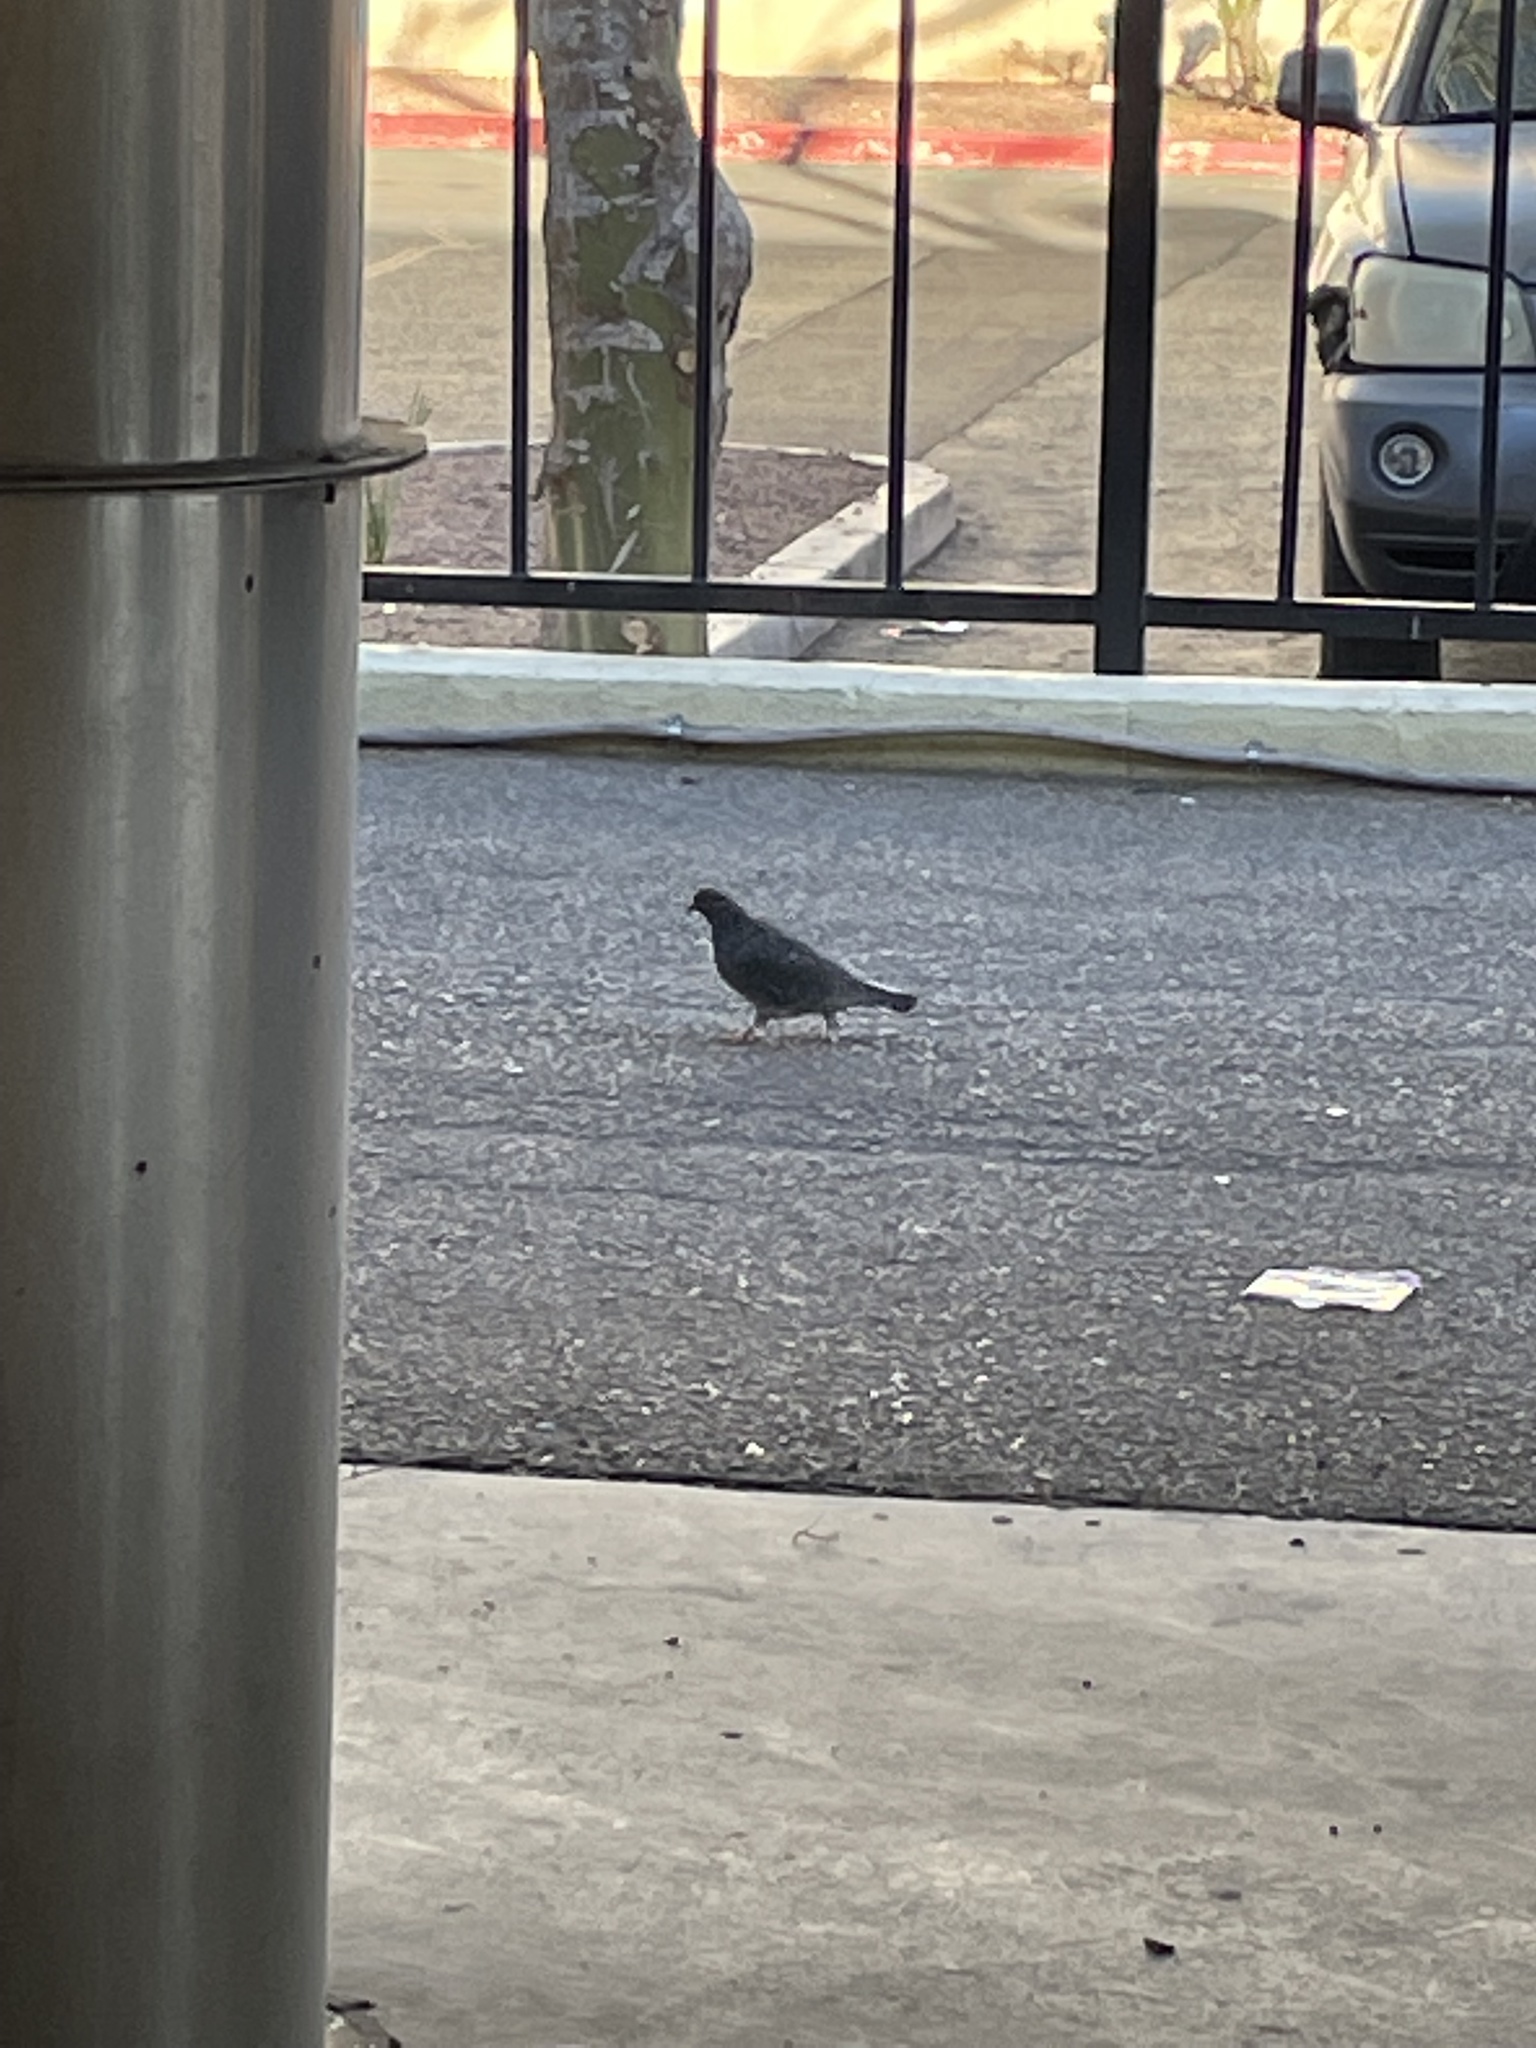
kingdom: Animalia
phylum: Chordata
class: Aves
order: Columbiformes
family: Columbidae
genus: Columba
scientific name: Columba livia
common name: Rock pigeon
